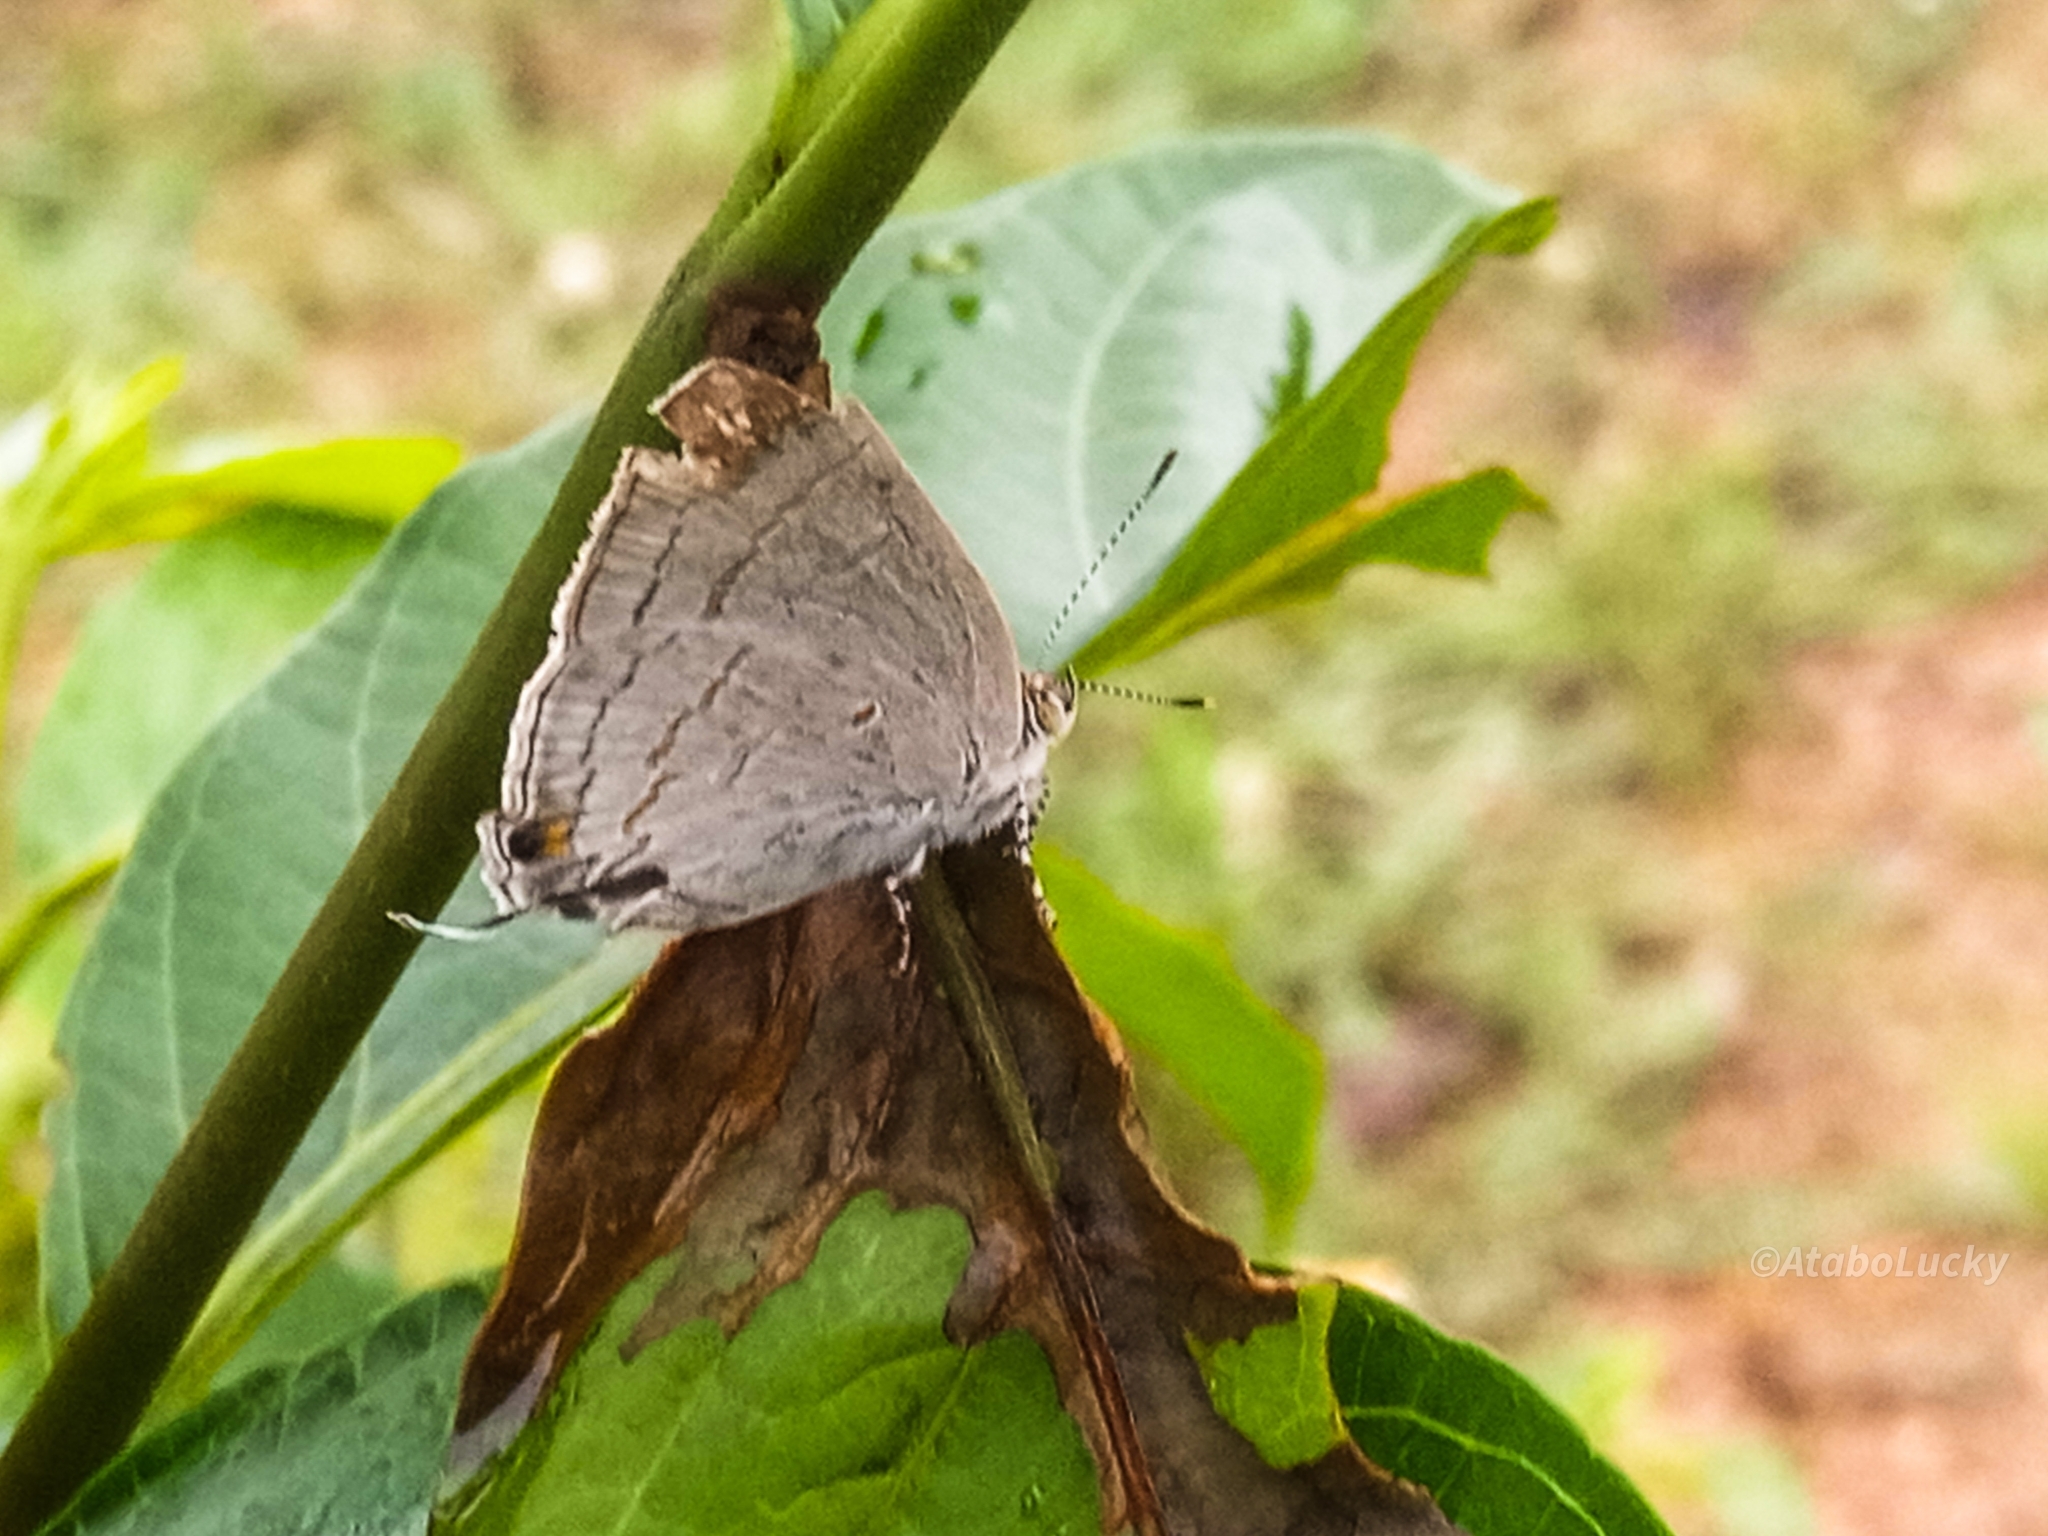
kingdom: Animalia
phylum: Arthropoda
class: Insecta
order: Lepidoptera
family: Lycaenidae
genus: Hypolycaena
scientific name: Hypolycaena philippus
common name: Common hairstreak
